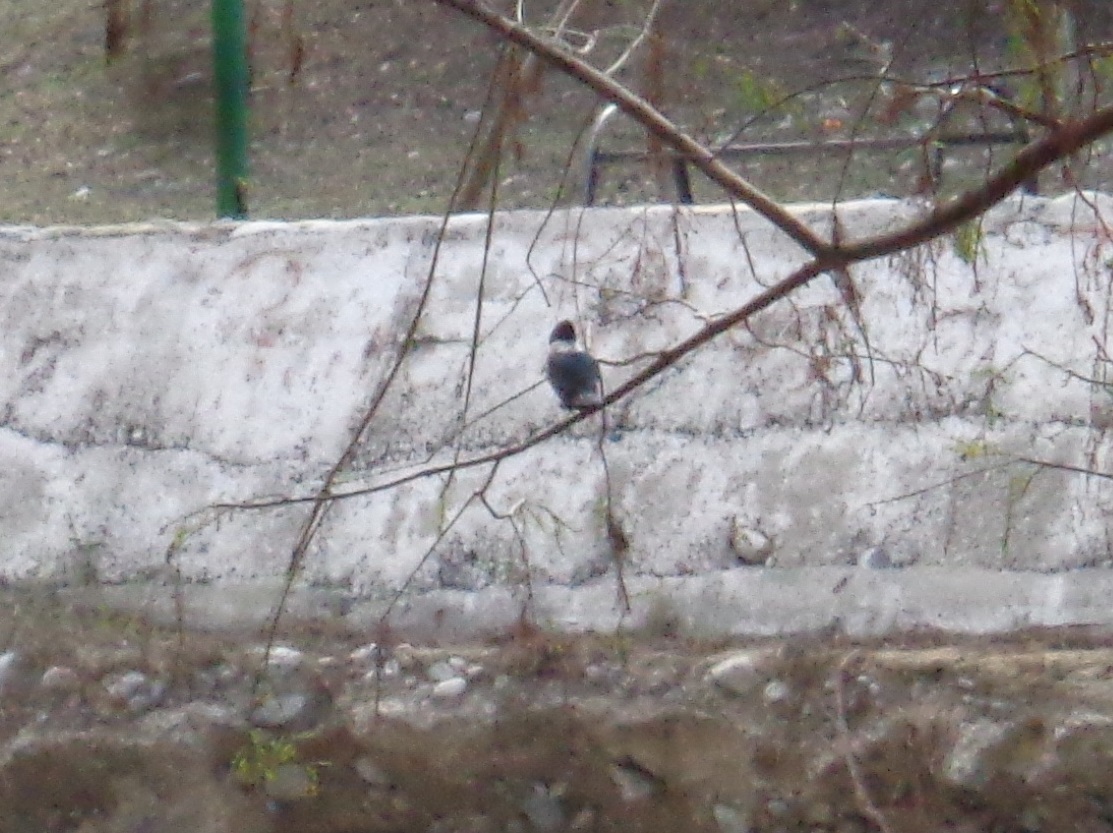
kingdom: Animalia
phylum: Chordata
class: Aves
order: Coraciiformes
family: Alcedinidae
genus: Megaceryle
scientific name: Megaceryle torquata
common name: Ringed kingfisher
